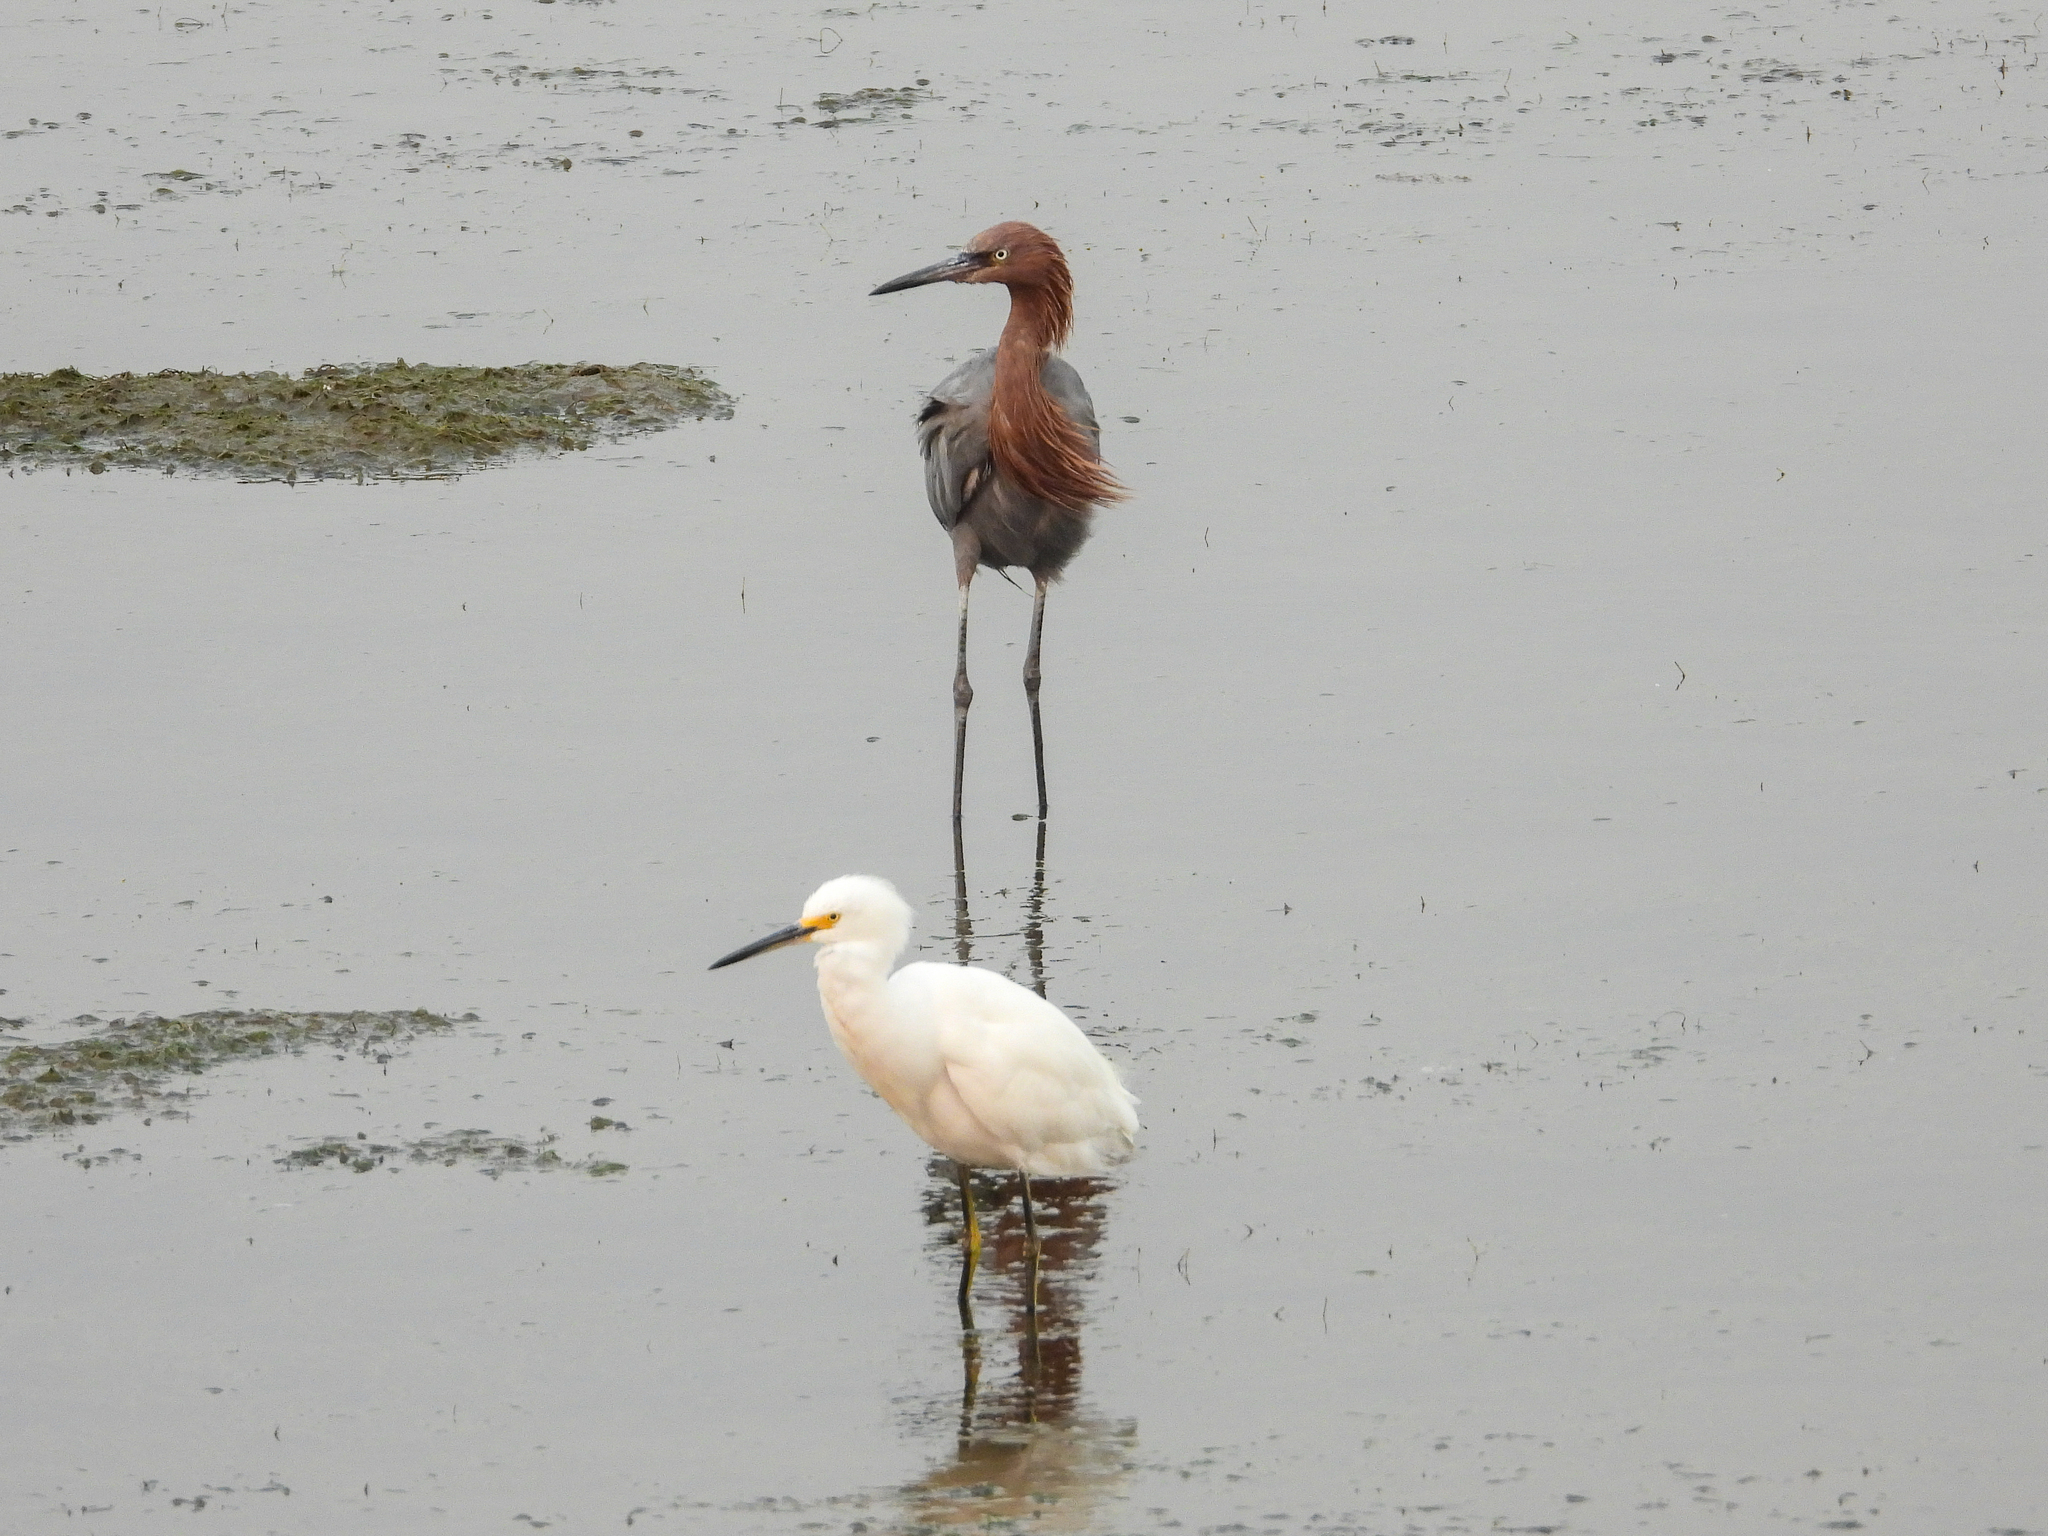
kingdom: Animalia
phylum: Chordata
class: Aves
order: Pelecaniformes
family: Ardeidae
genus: Egretta
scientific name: Egretta rufescens
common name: Reddish egret
